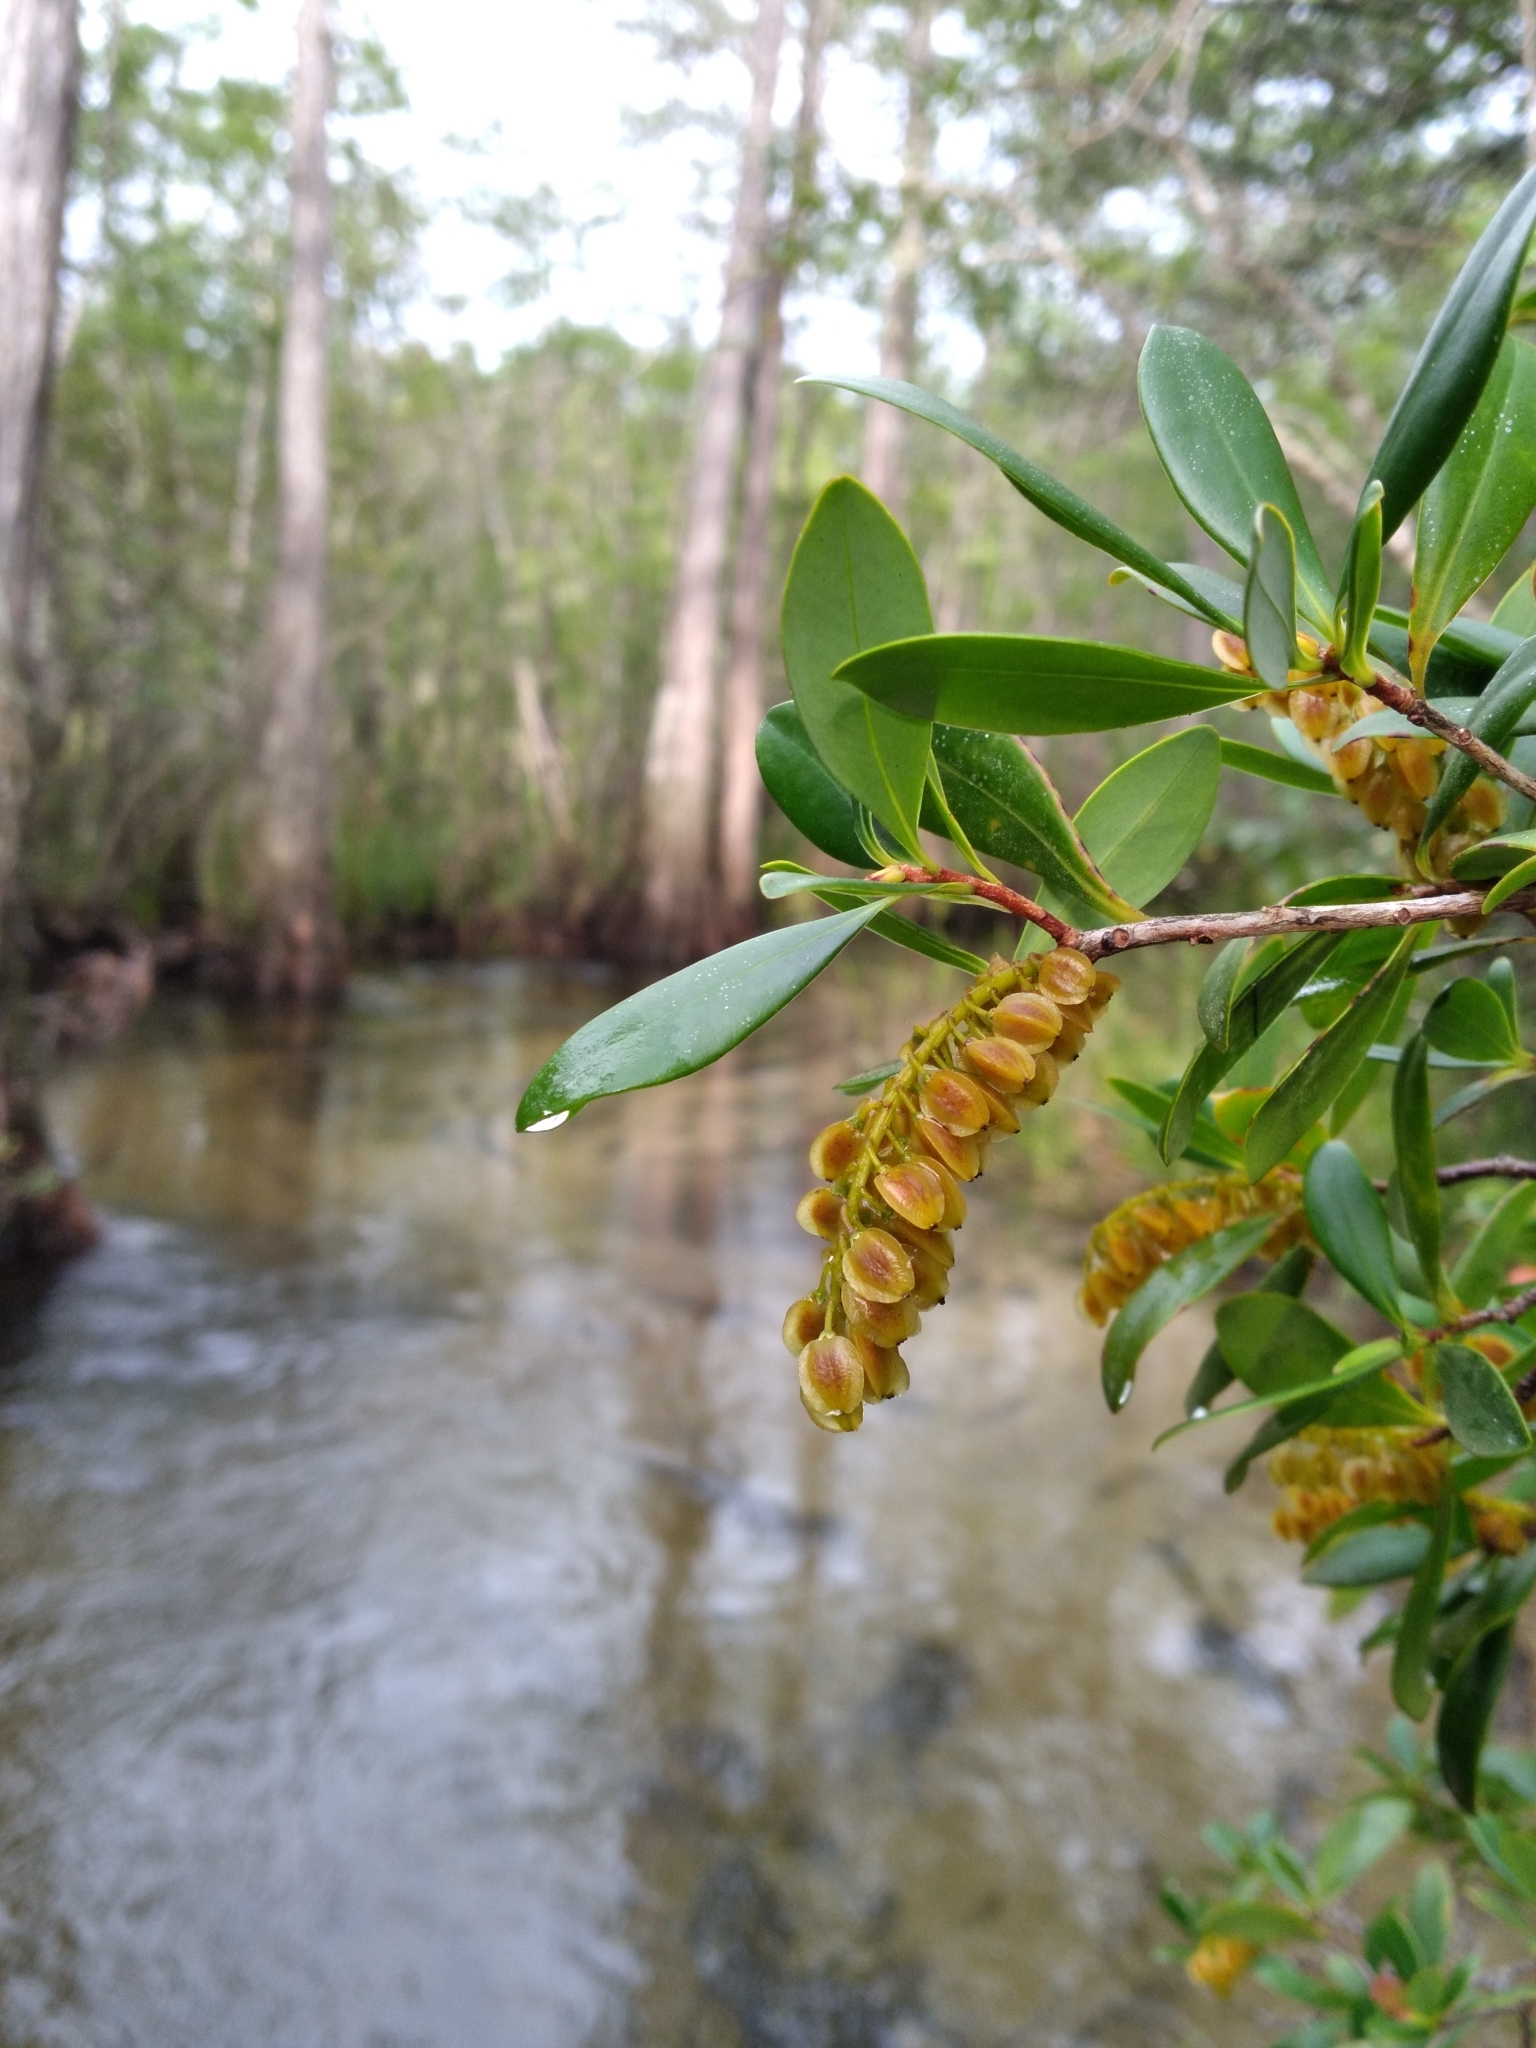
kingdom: Plantae
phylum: Tracheophyta
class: Magnoliopsida
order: Ericales
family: Cyrillaceae
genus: Cliftonia
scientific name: Cliftonia monophylla
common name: Titi
